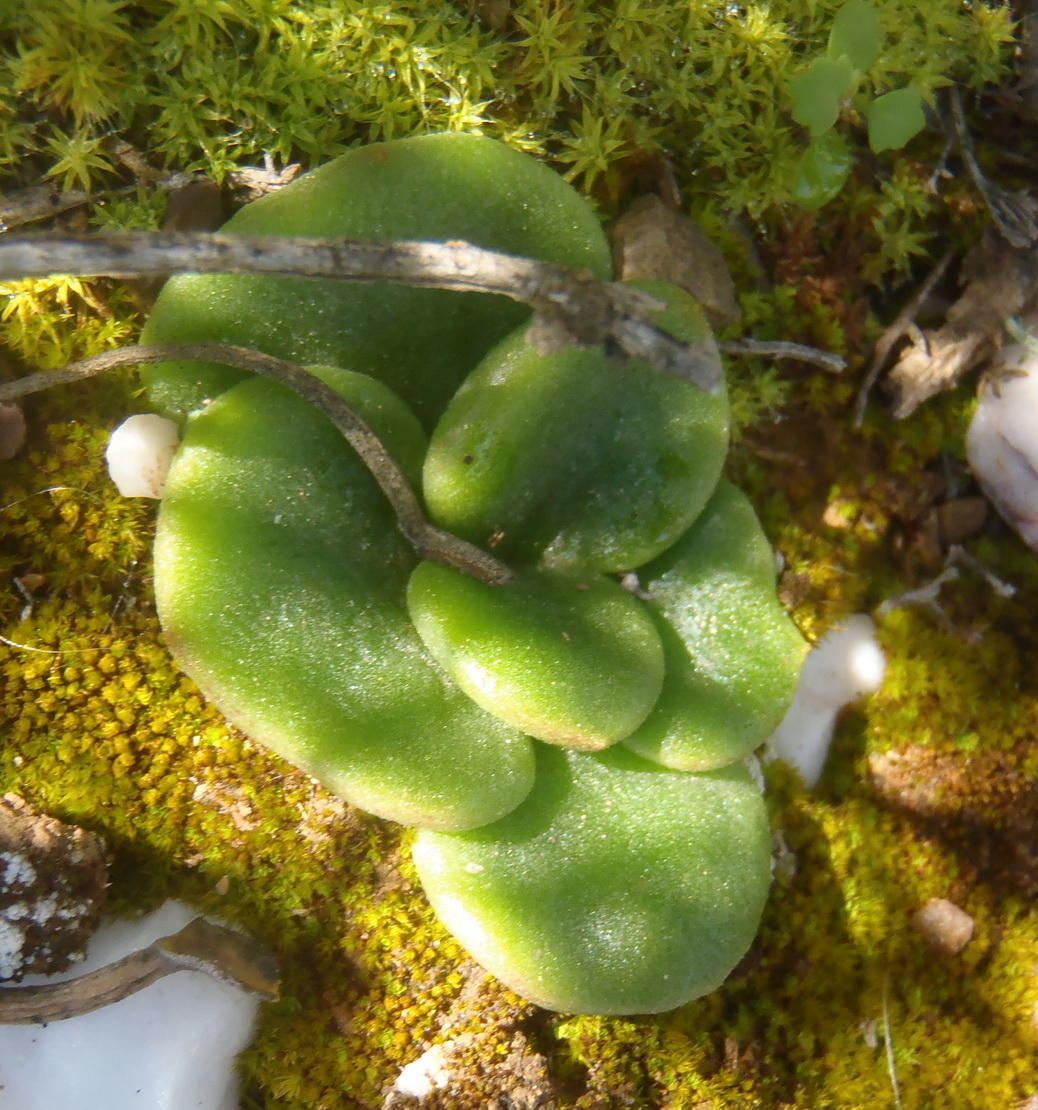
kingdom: Plantae
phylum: Tracheophyta
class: Magnoliopsida
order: Saxifragales
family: Crassulaceae
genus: Tylecodon
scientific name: Tylecodon ventricosus
